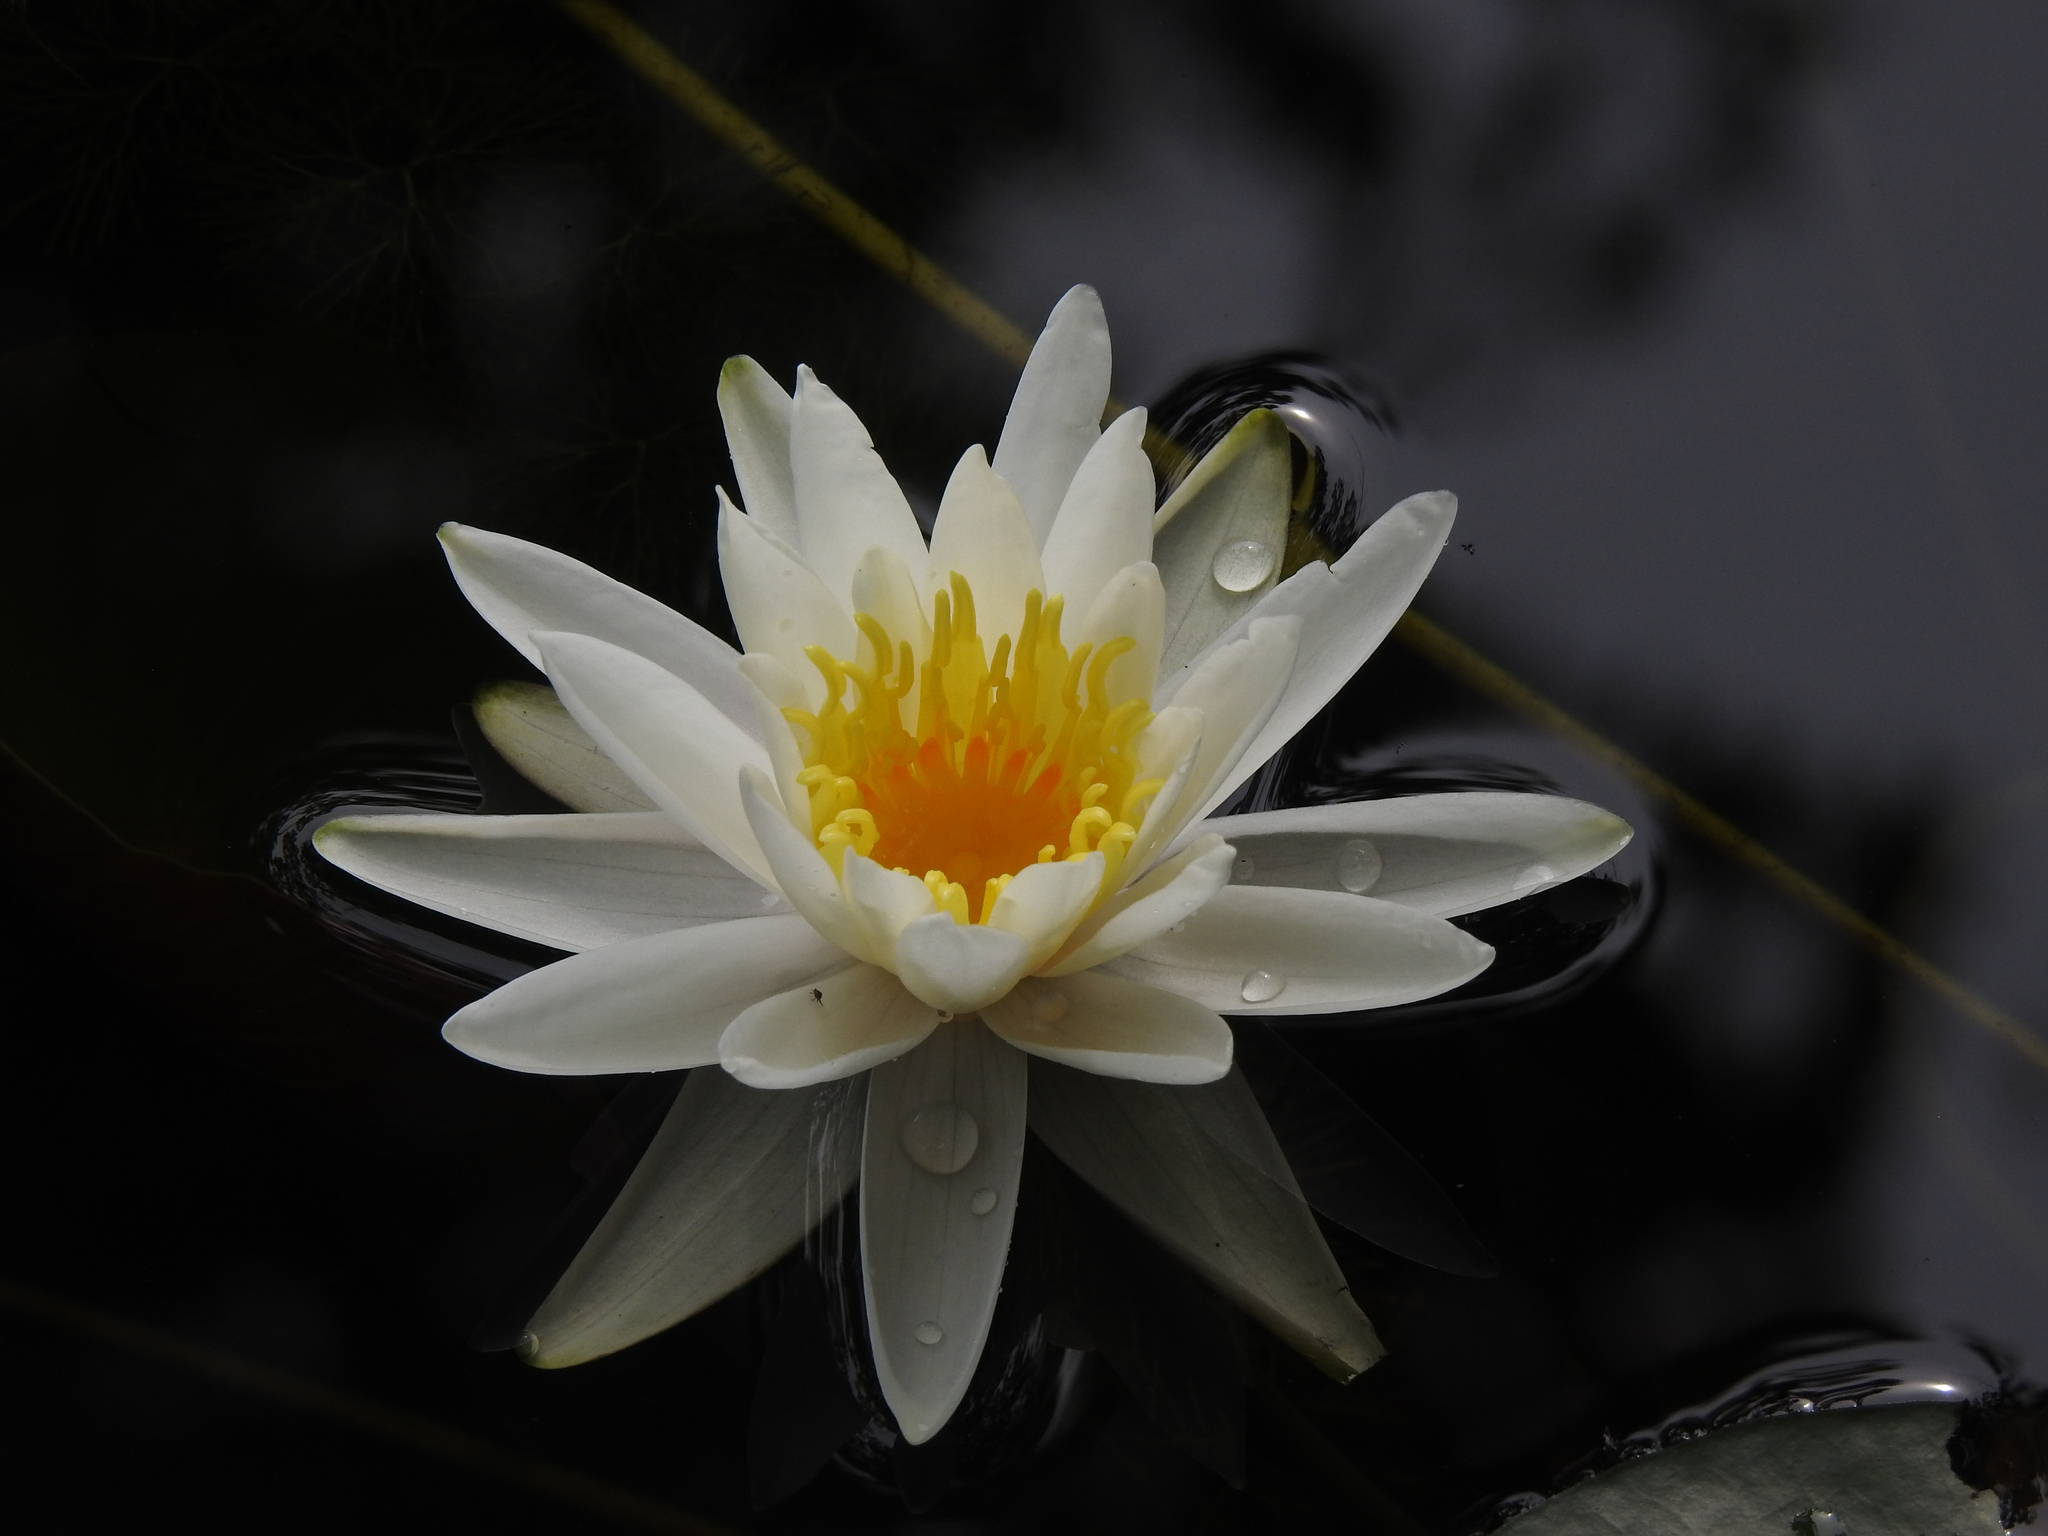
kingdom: Plantae
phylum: Tracheophyta
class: Magnoliopsida
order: Nymphaeales
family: Nymphaeaceae
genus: Nymphaea
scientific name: Nymphaea odorata
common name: Fragrant water-lily
